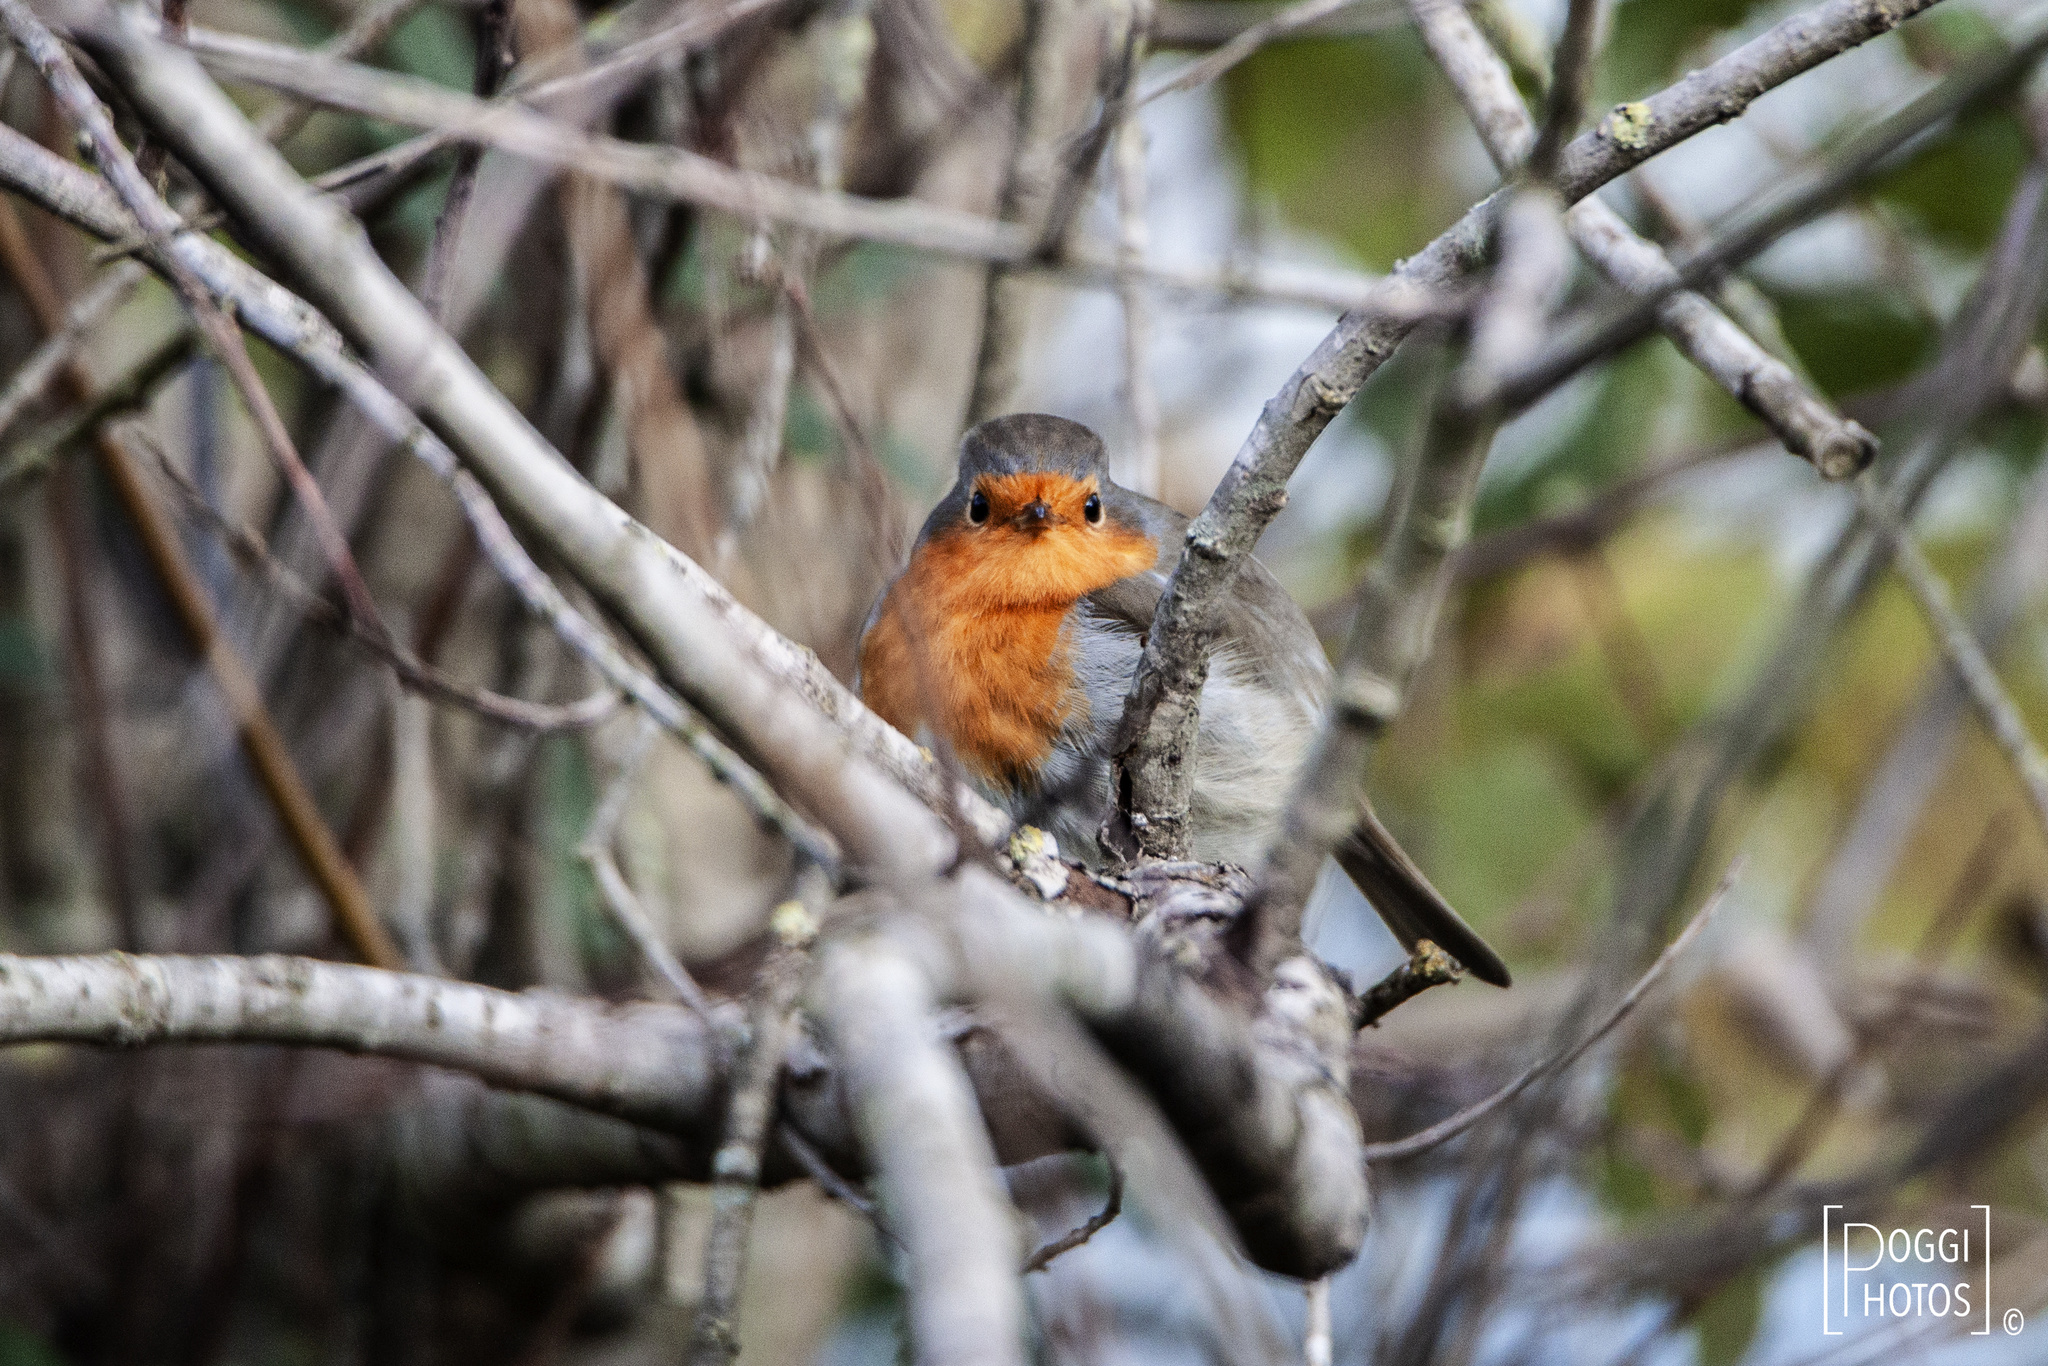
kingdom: Animalia
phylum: Chordata
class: Aves
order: Passeriformes
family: Muscicapidae
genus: Erithacus
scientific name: Erithacus rubecula
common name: European robin
